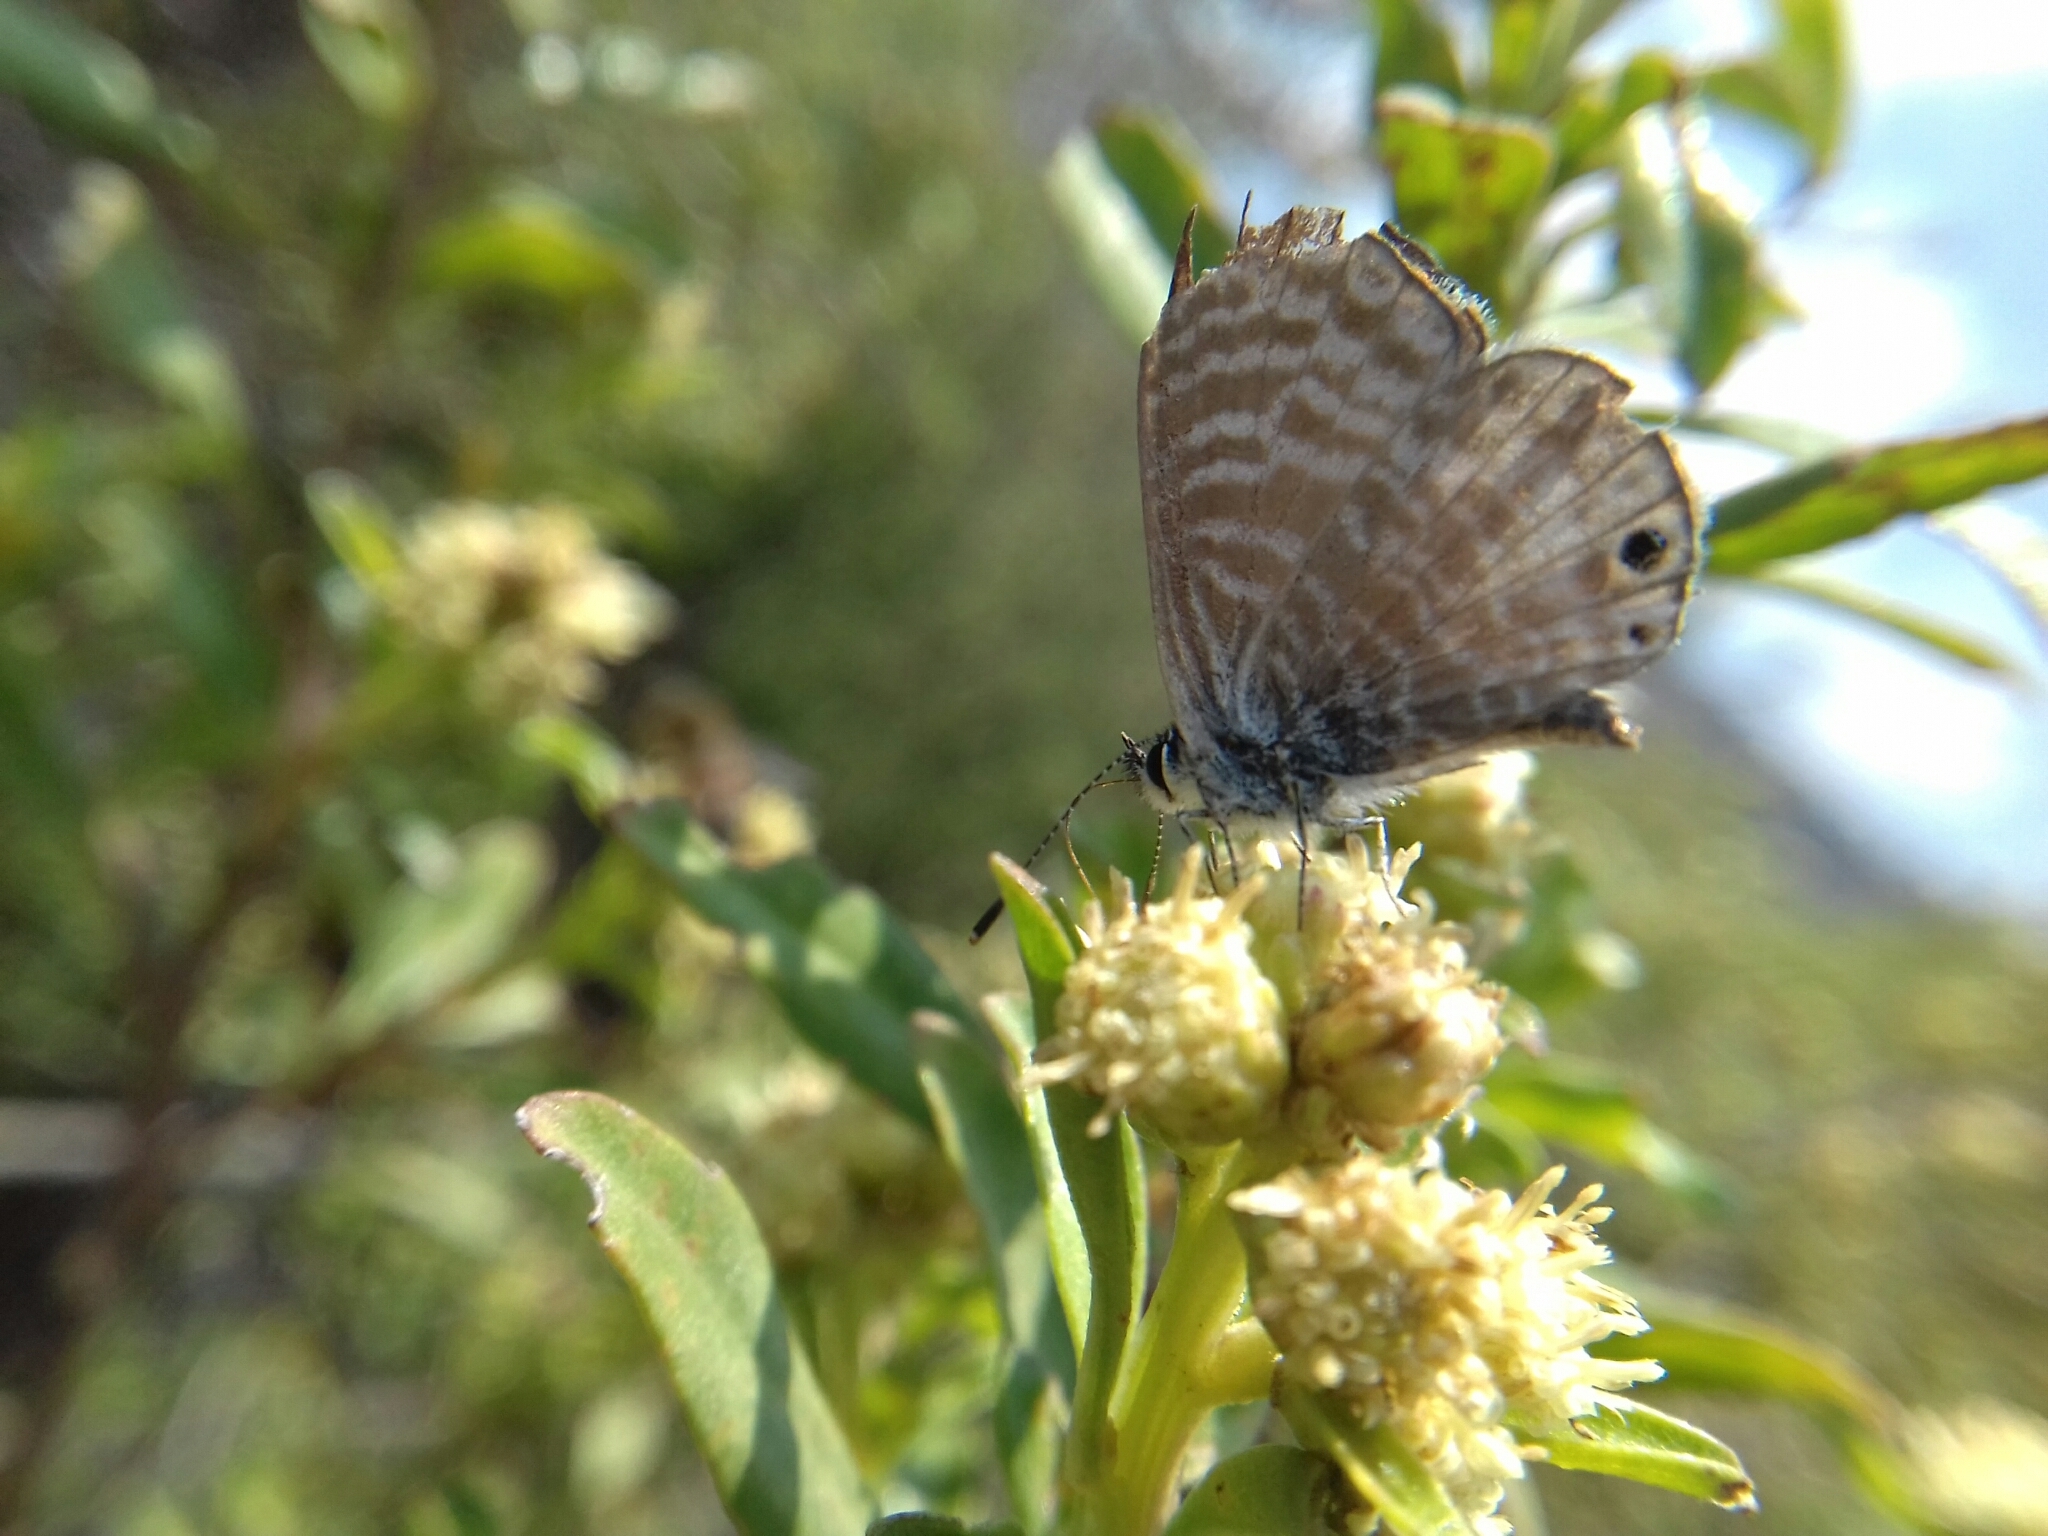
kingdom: Animalia
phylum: Arthropoda
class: Insecta
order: Lepidoptera
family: Lycaenidae
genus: Leptotes
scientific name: Leptotes marina
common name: Marine blue
